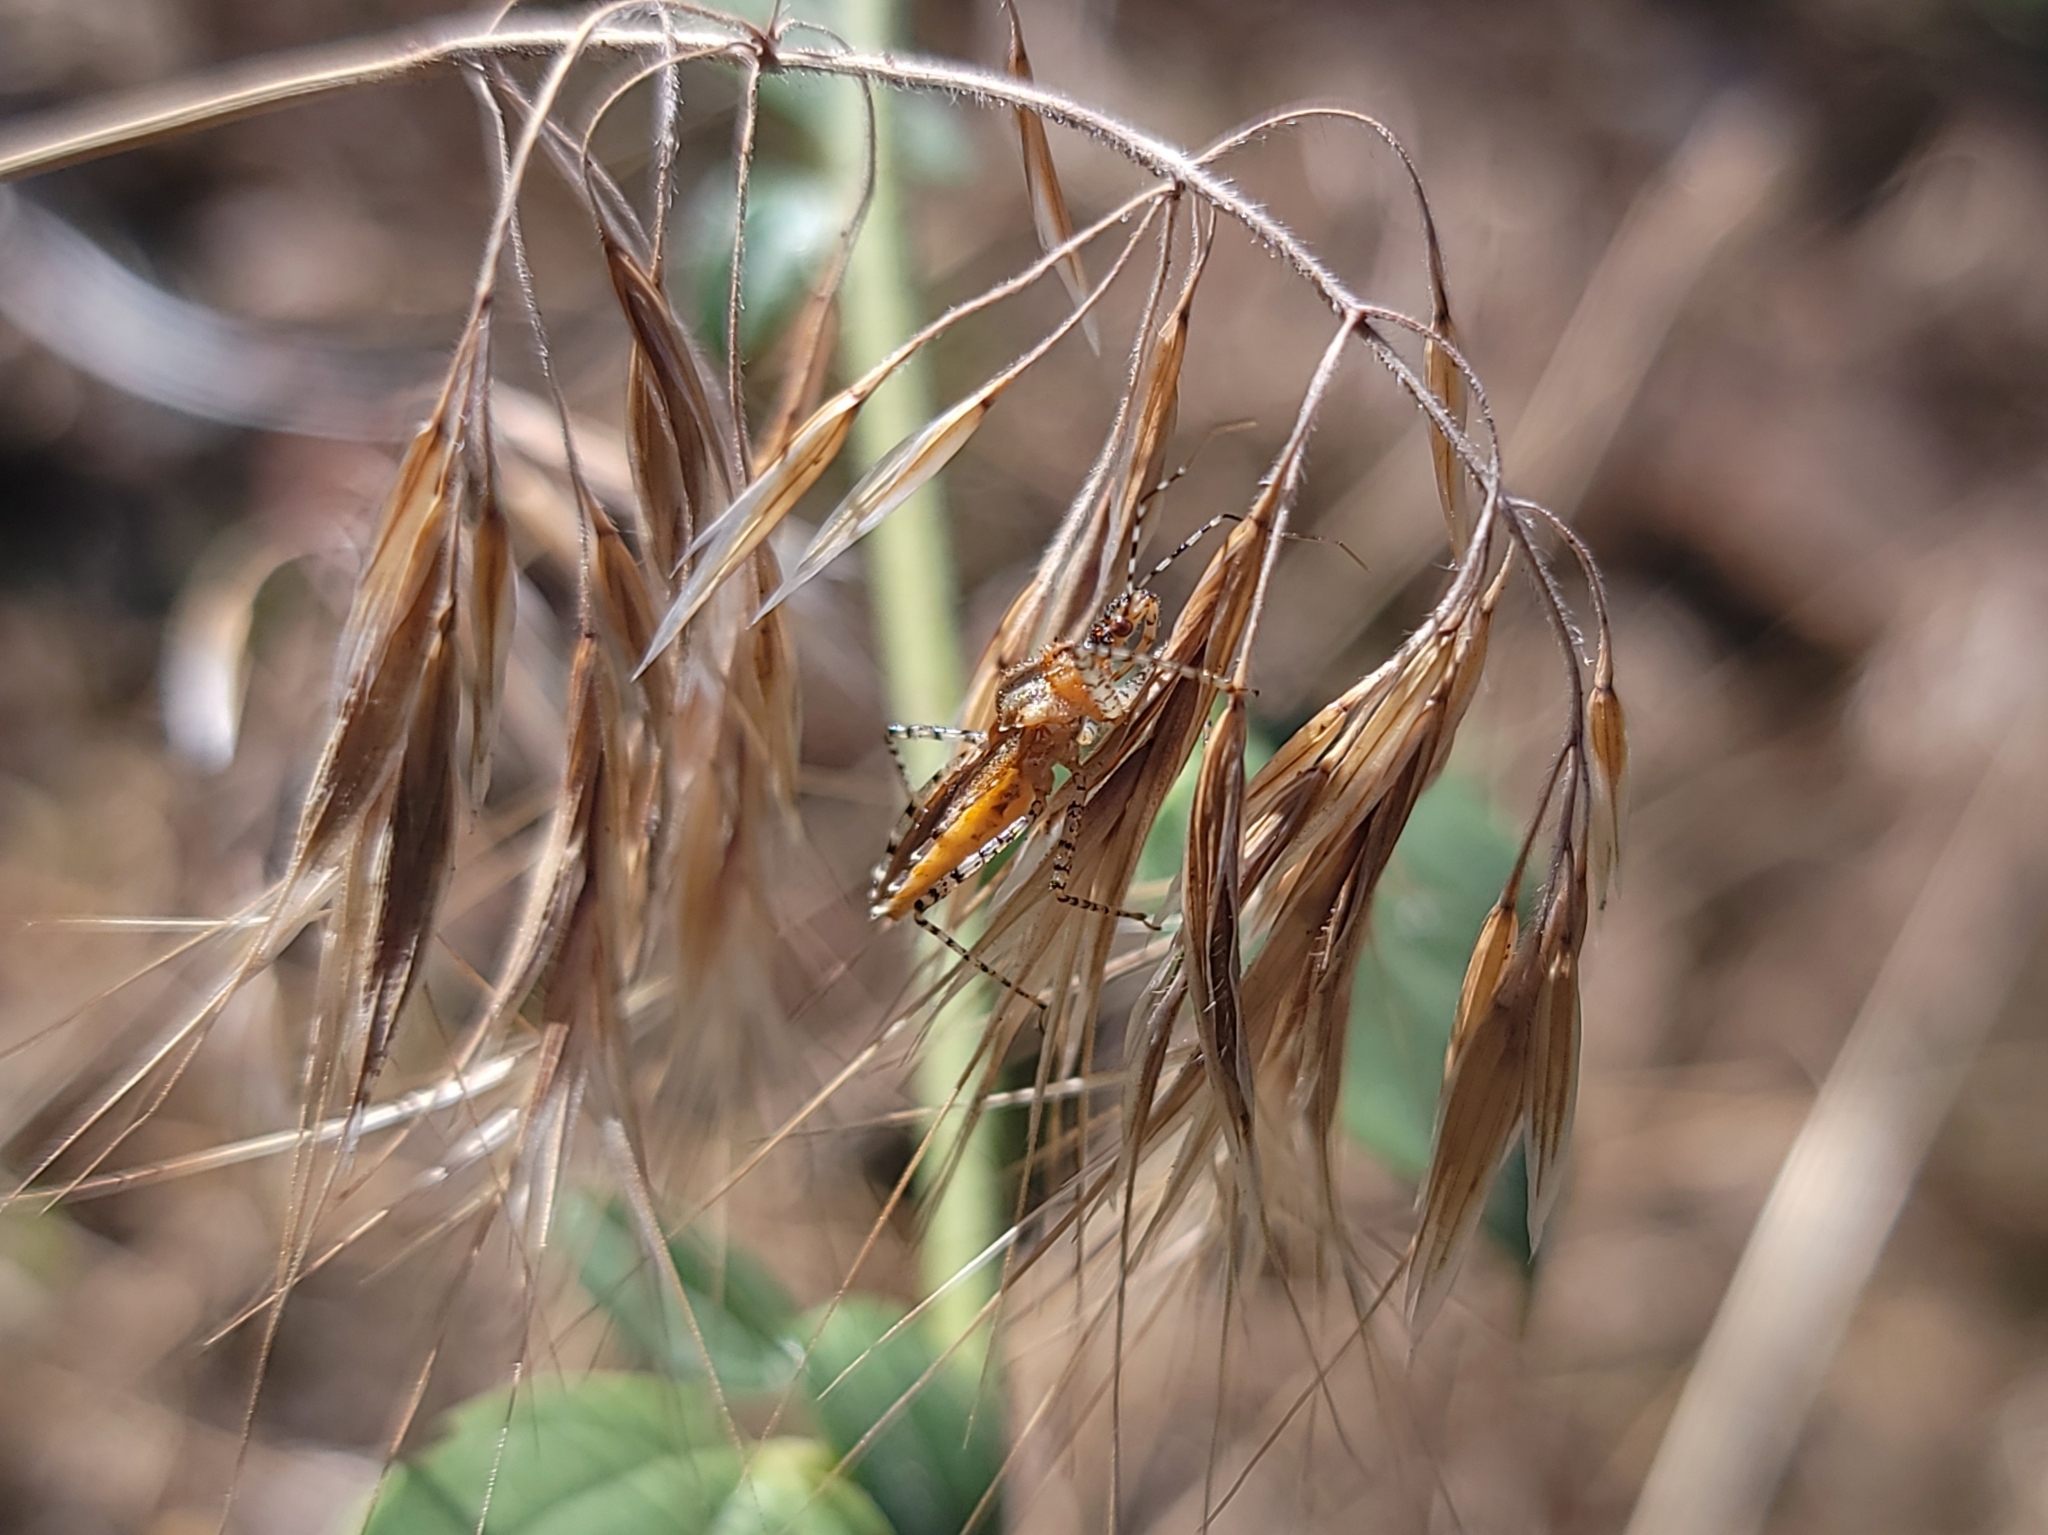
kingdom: Animalia
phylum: Arthropoda
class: Insecta
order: Hemiptera
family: Reduviidae
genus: Pselliopus
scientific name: Pselliopus spinicollis
